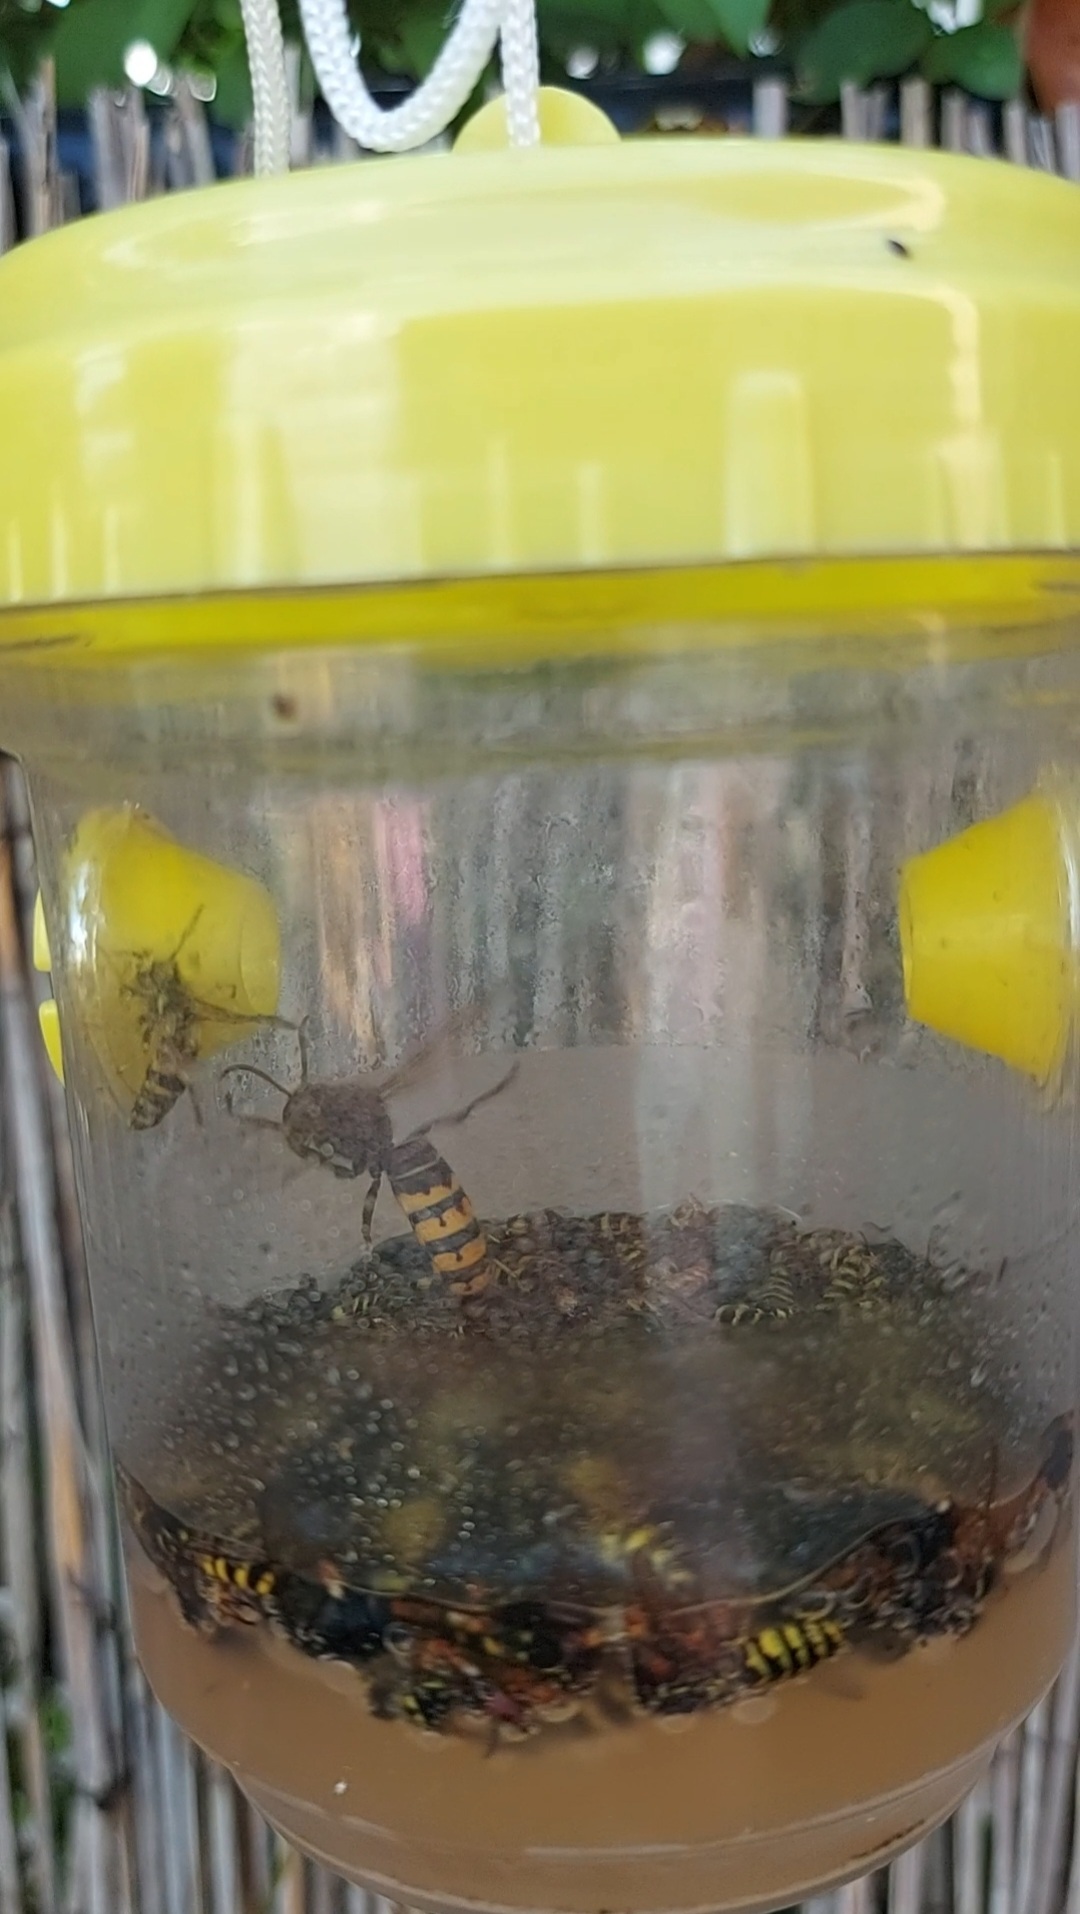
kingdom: Animalia
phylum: Arthropoda
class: Insecta
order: Hymenoptera
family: Vespidae
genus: Vespa
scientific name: Vespa crabro
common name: Hornet
